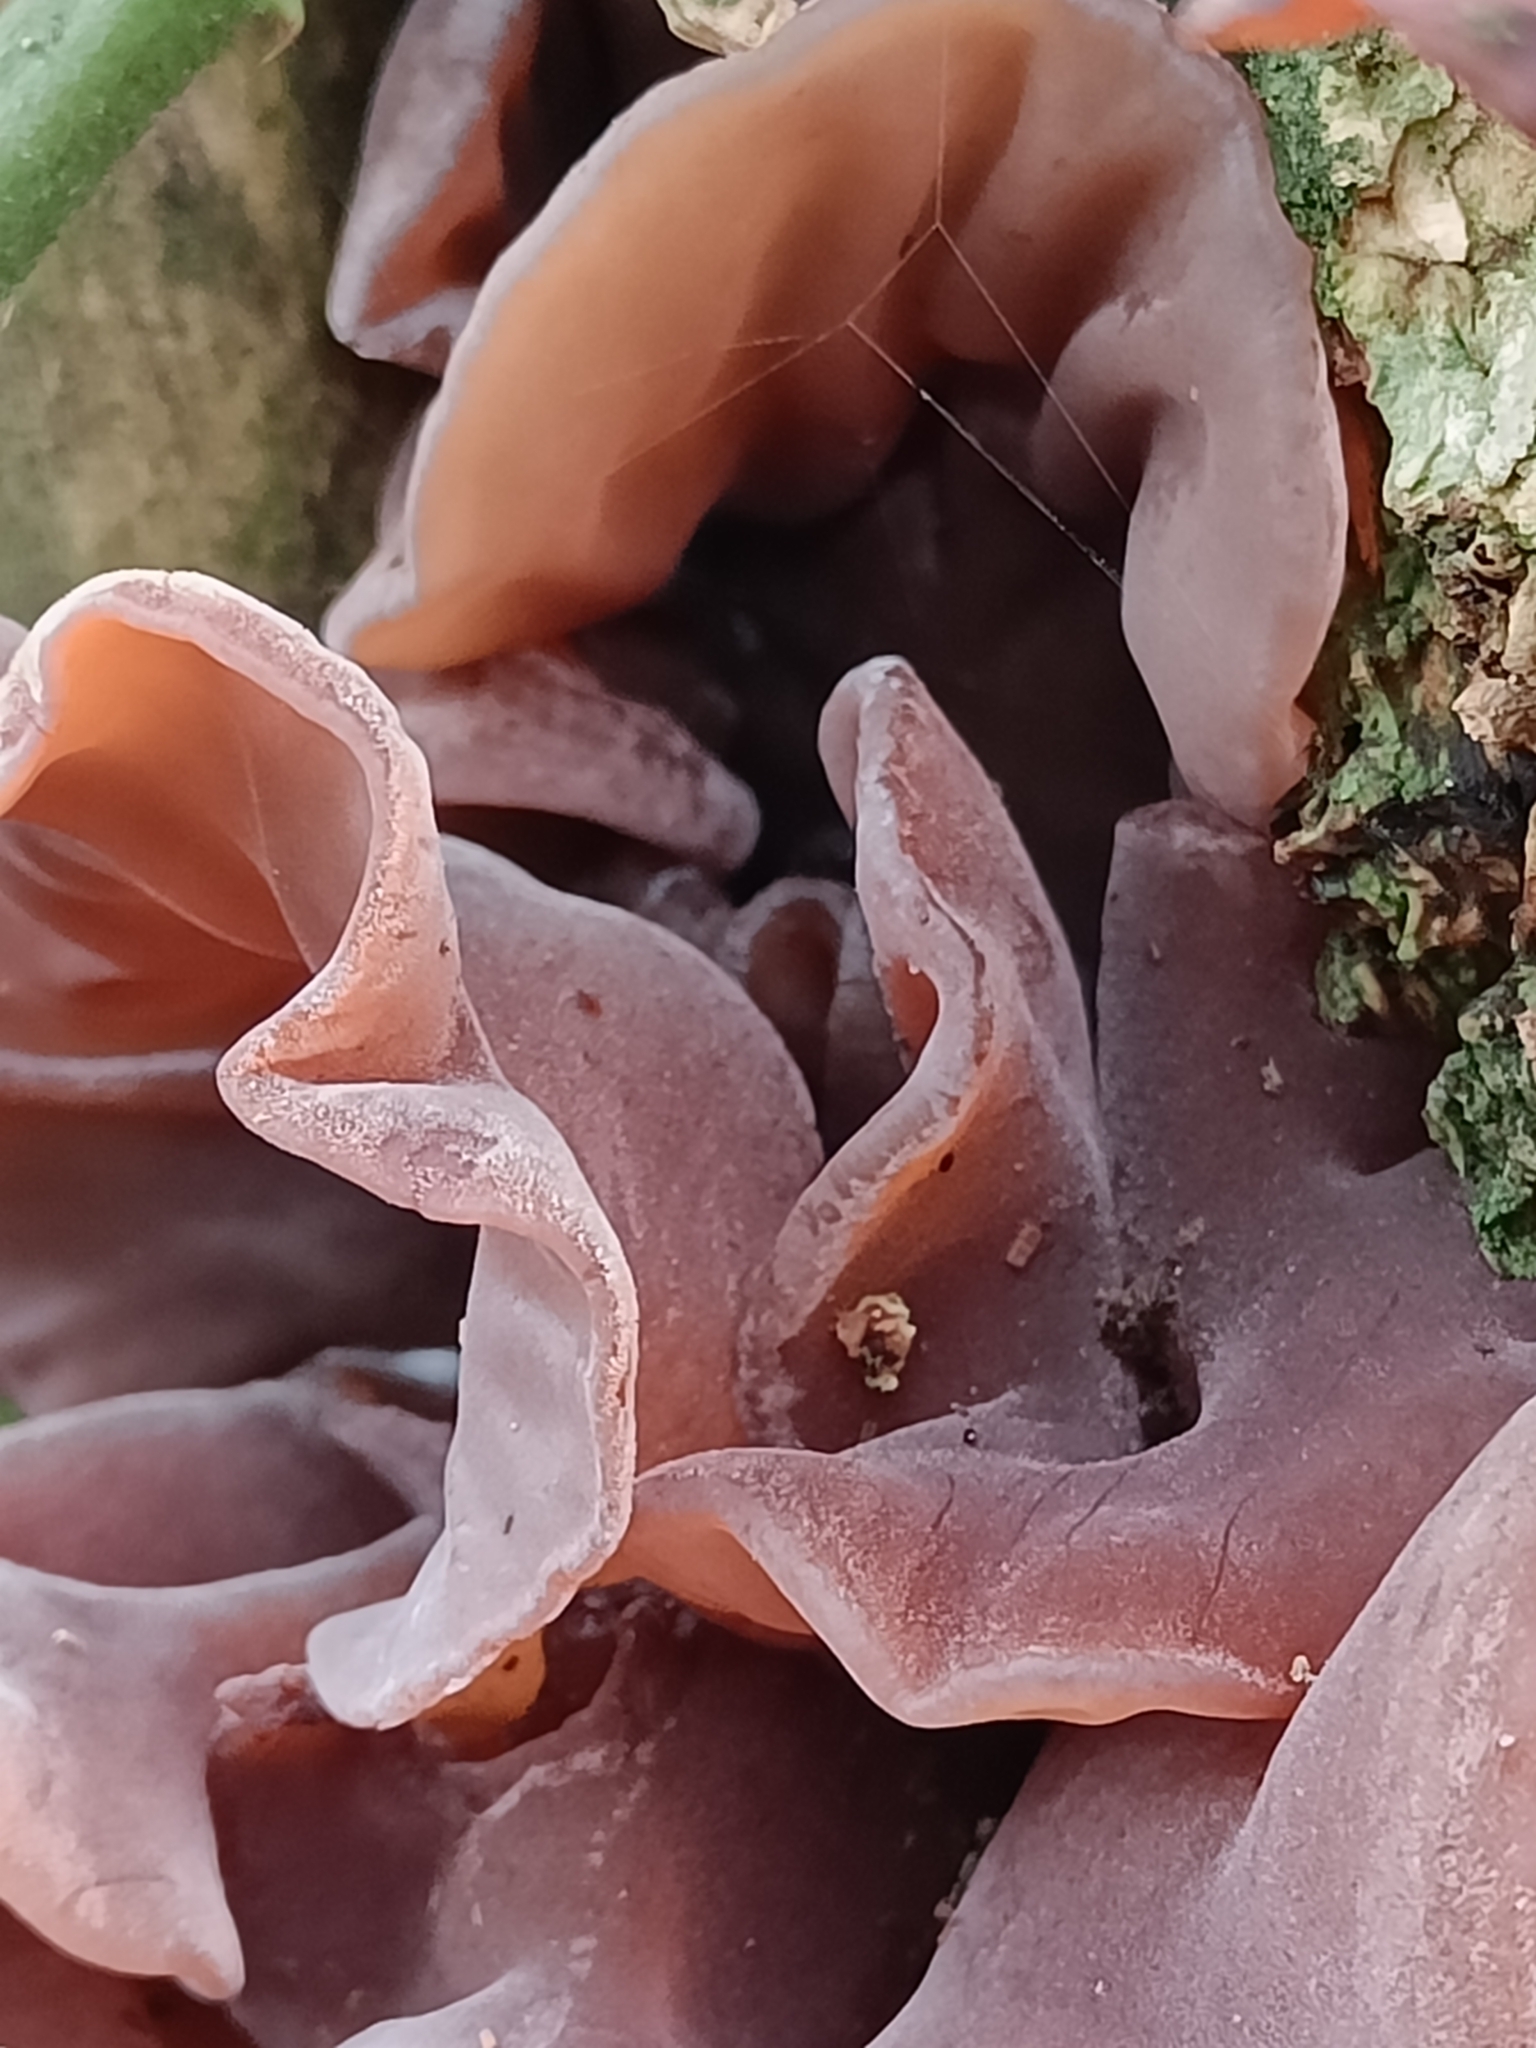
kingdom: Fungi
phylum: Basidiomycota
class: Agaricomycetes
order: Auriculariales
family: Auriculariaceae
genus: Auricularia
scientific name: Auricularia auricula-judae
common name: Jelly ear
